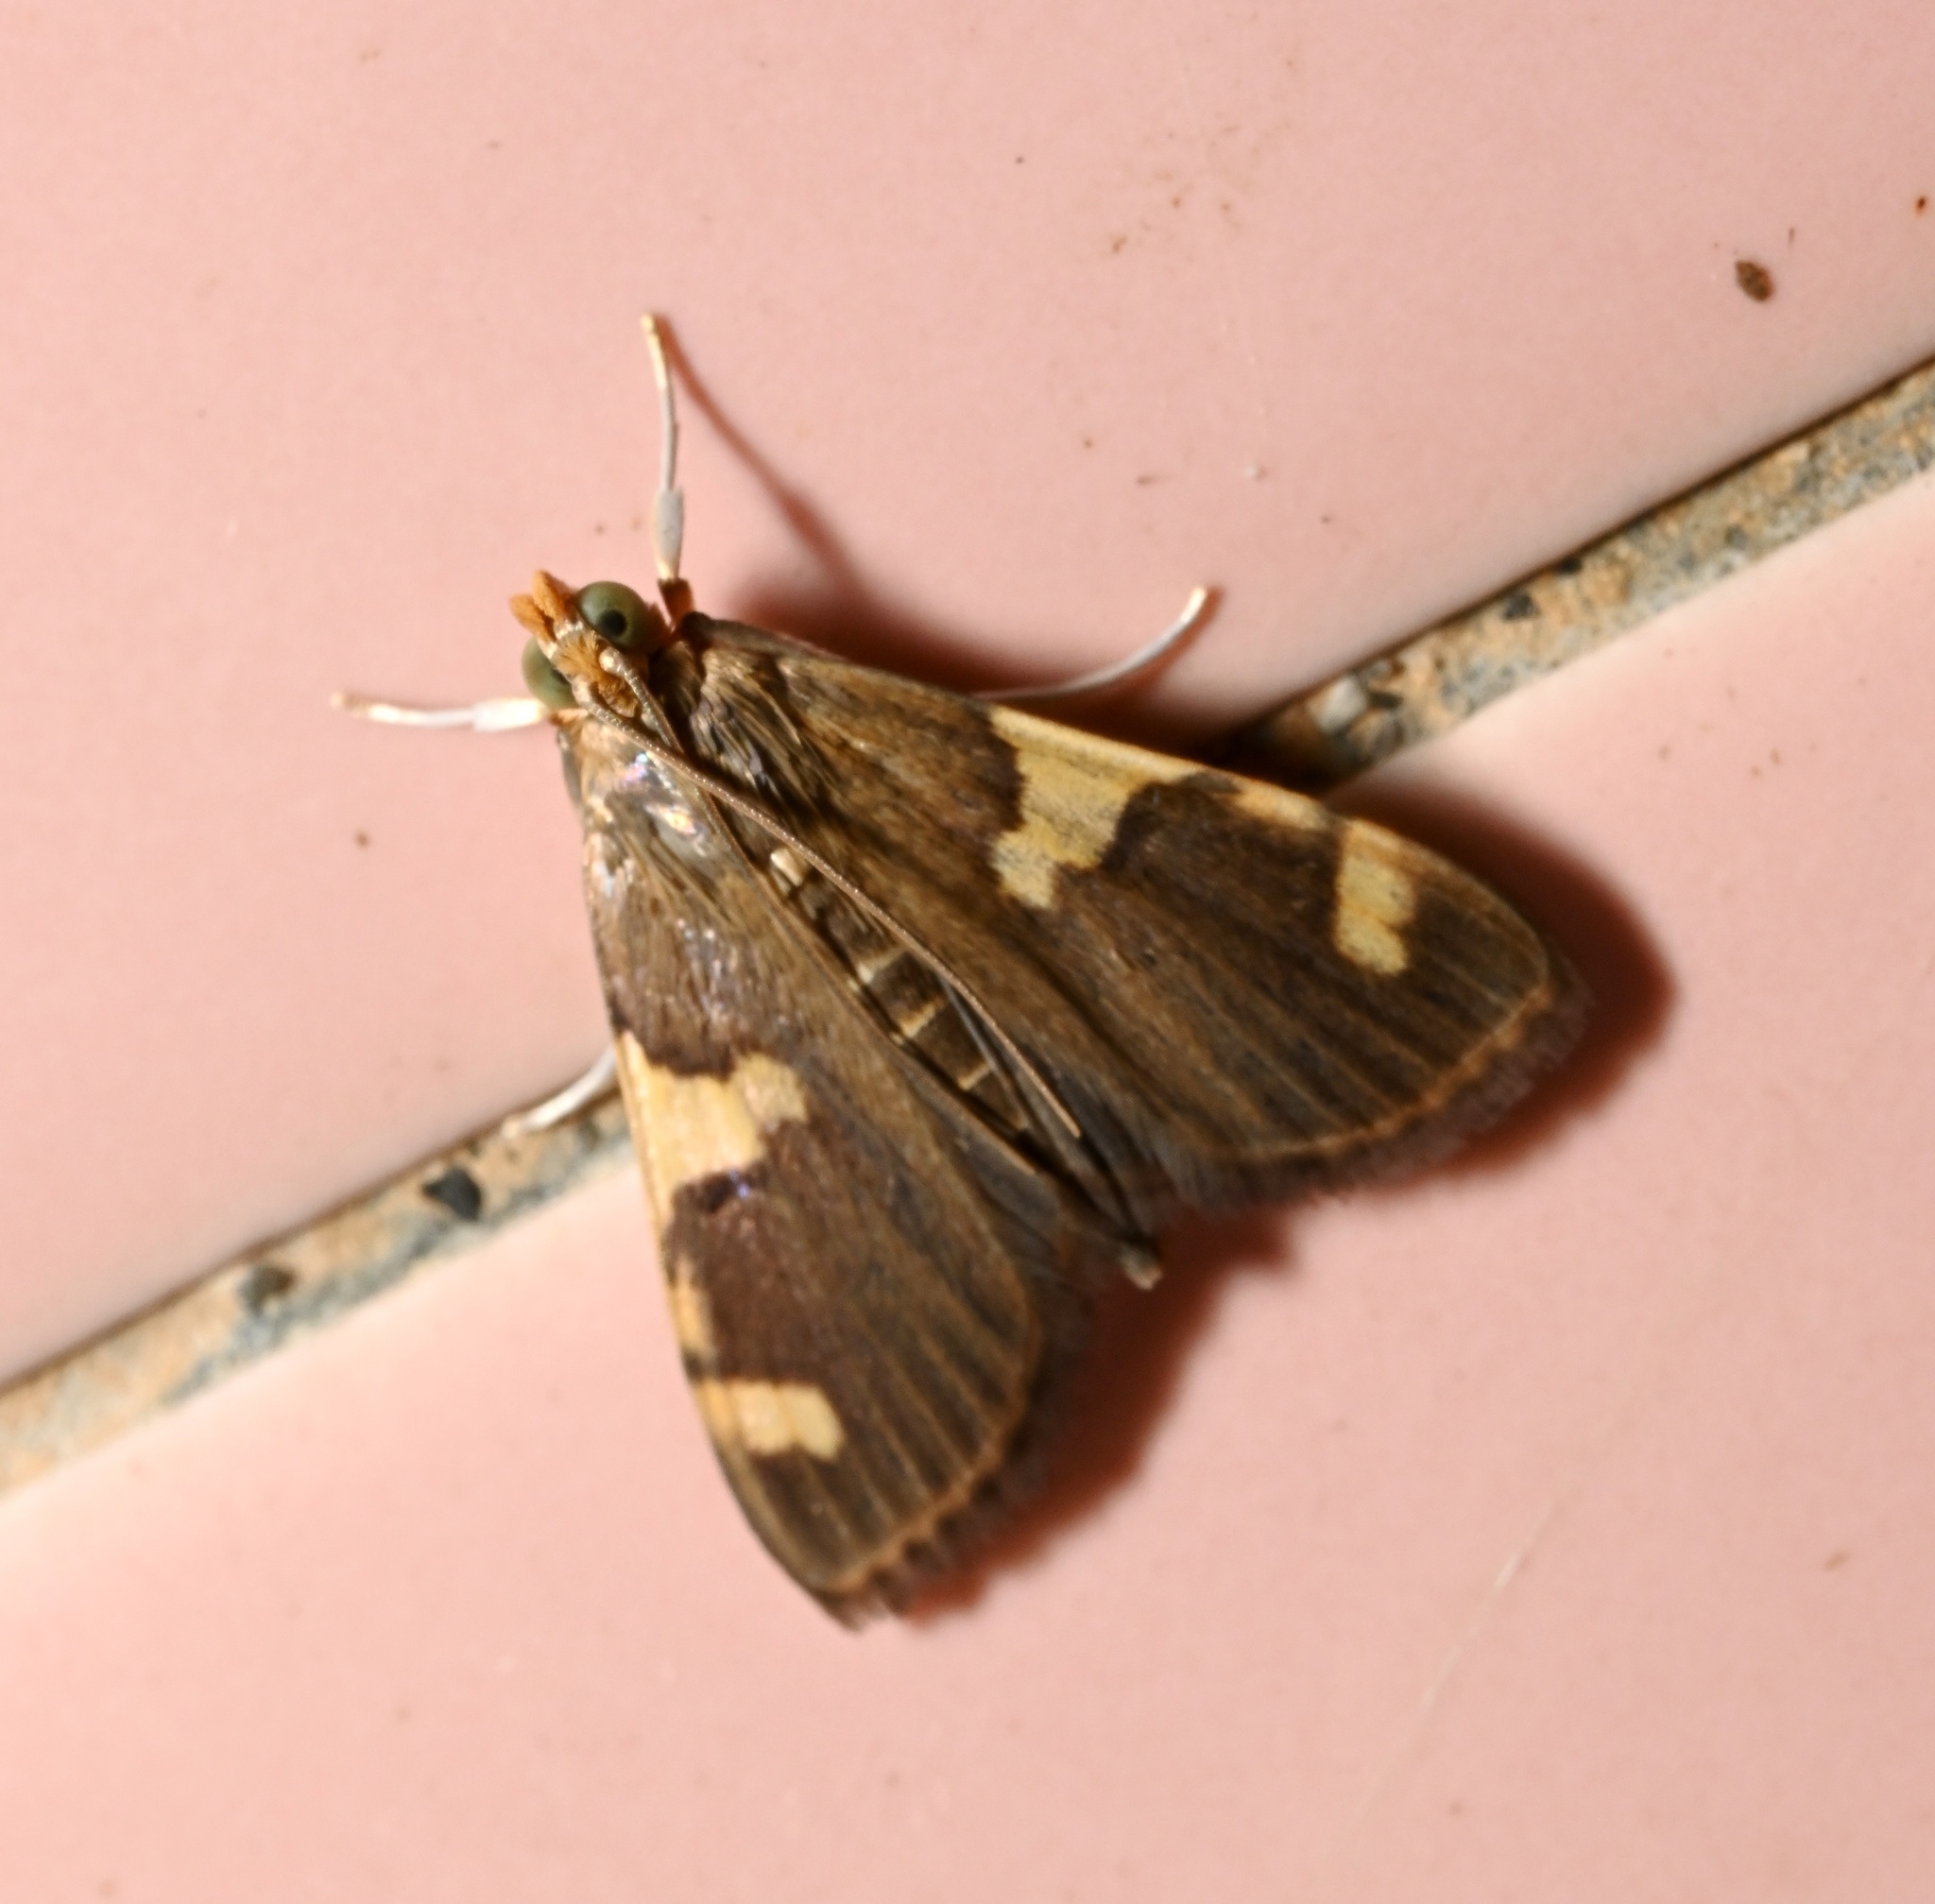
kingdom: Animalia
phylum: Arthropoda
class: Insecta
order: Lepidoptera
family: Crambidae
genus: Rehimena
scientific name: Rehimena phrynealis
